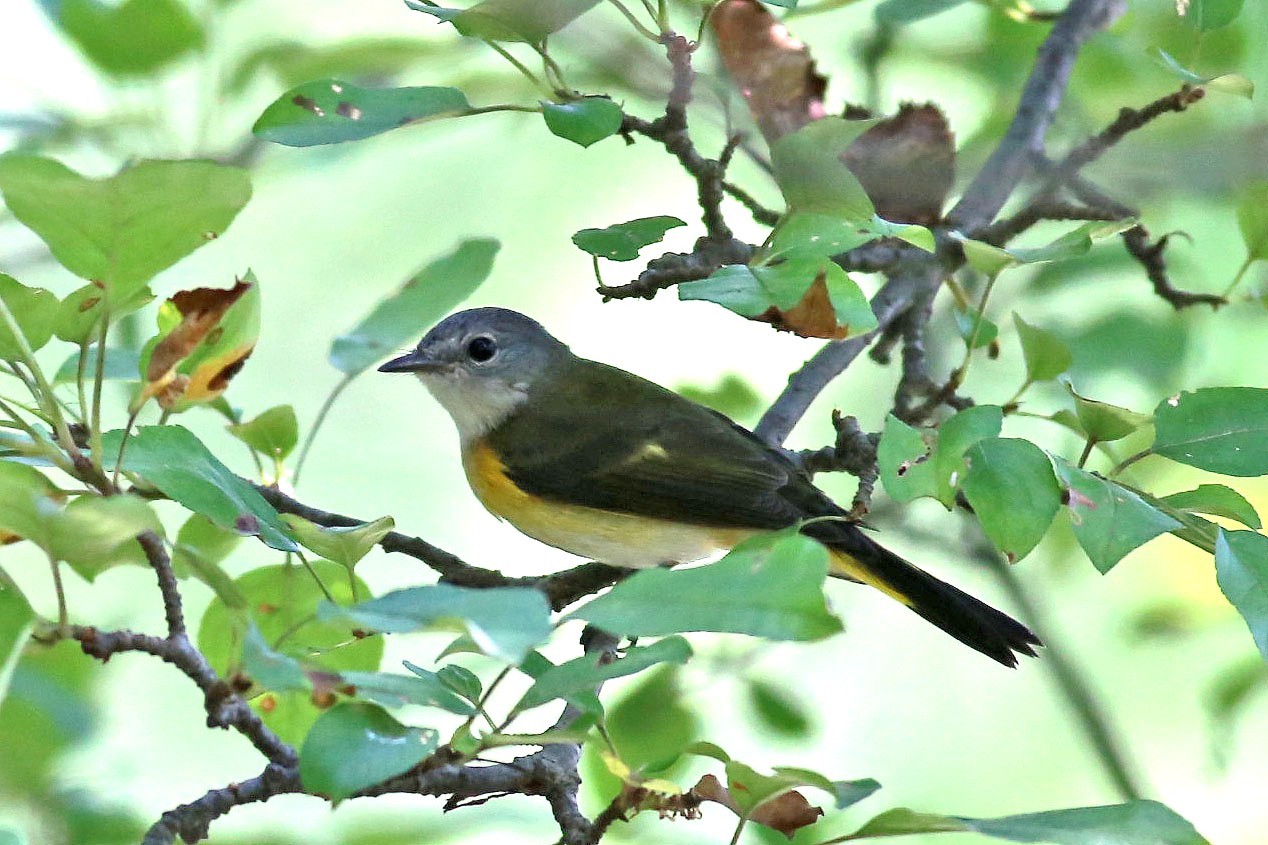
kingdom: Animalia
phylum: Chordata
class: Aves
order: Passeriformes
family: Parulidae
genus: Setophaga
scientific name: Setophaga ruticilla
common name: American redstart
